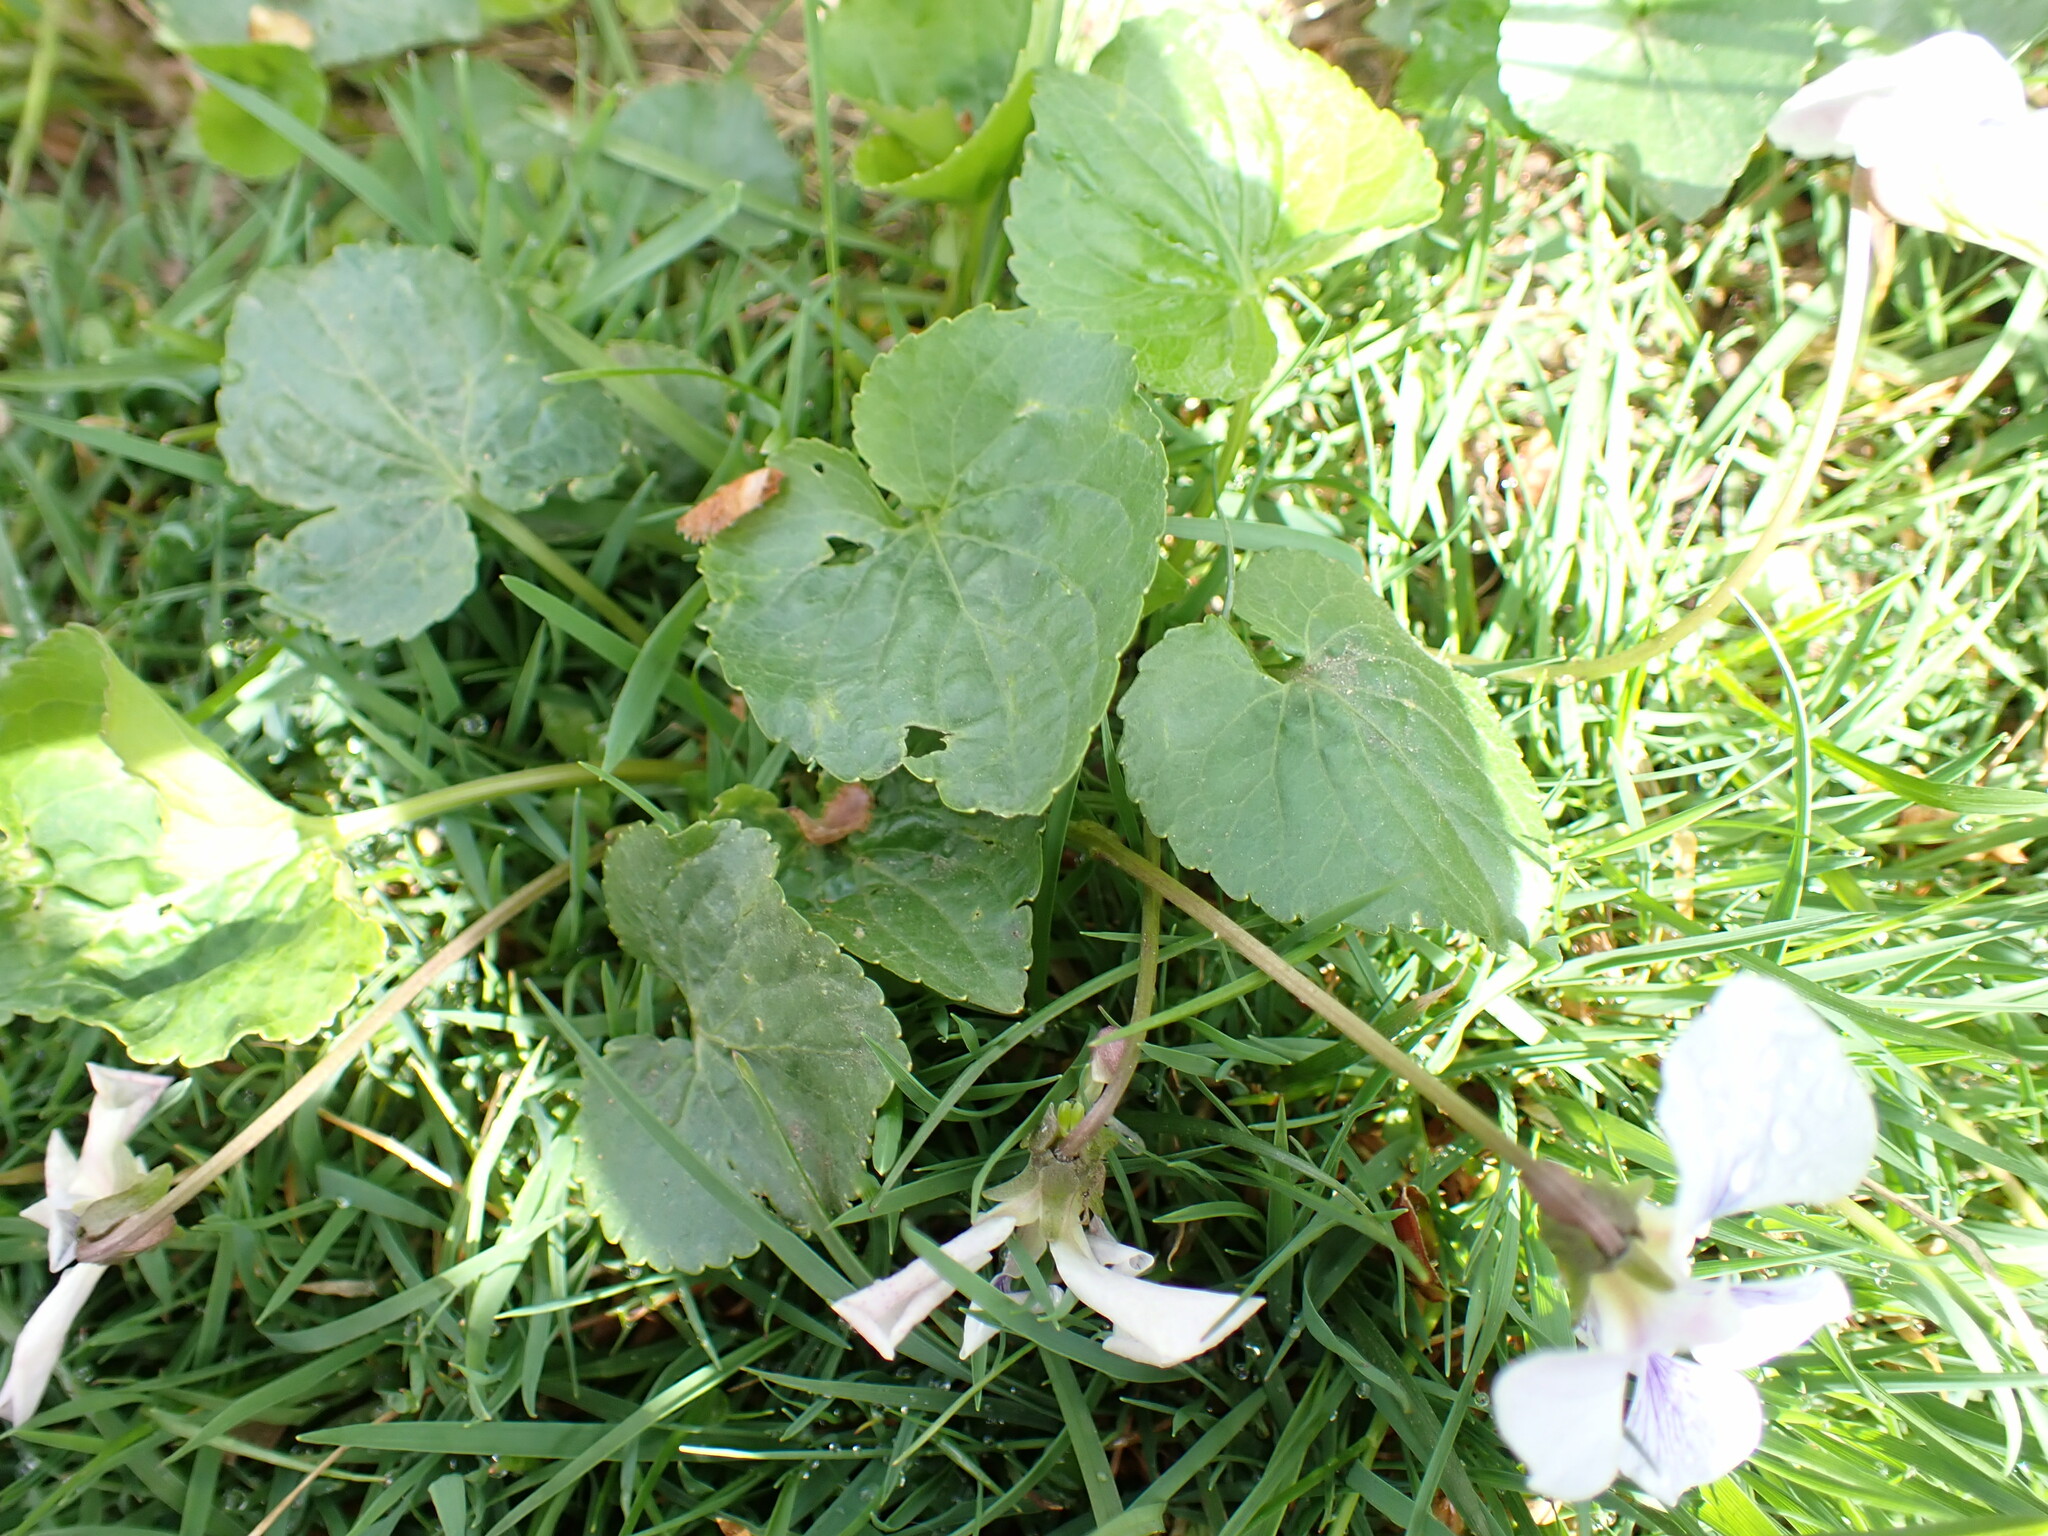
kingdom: Plantae
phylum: Tracheophyta
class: Magnoliopsida
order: Malpighiales
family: Violaceae
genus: Viola
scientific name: Viola sororia
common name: Dooryard violet
